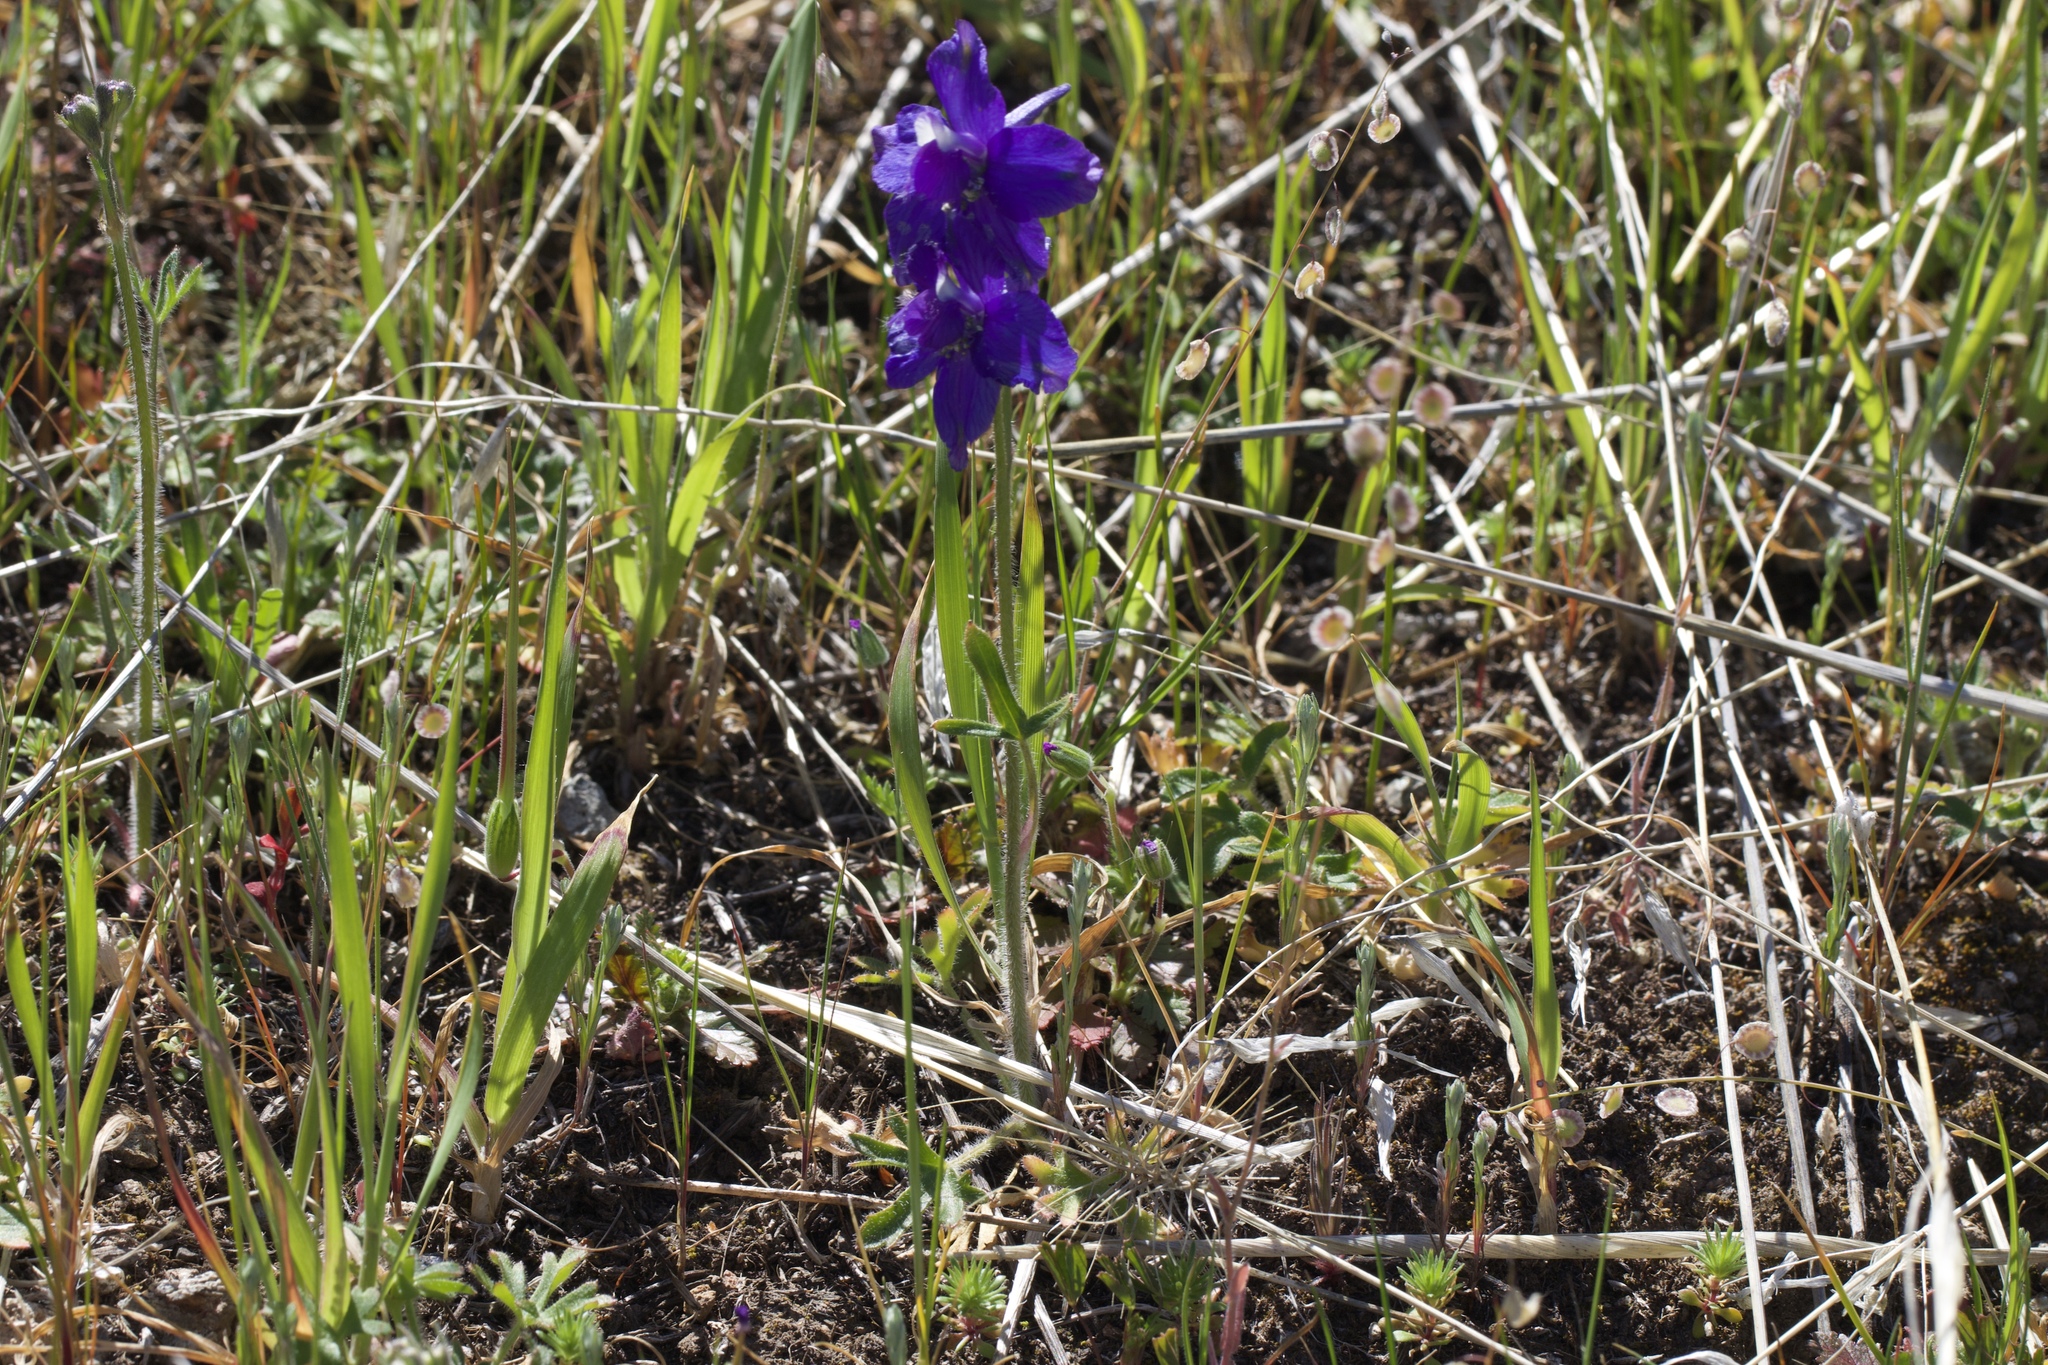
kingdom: Plantae
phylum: Tracheophyta
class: Magnoliopsida
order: Ranunculales
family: Ranunculaceae
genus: Delphinium
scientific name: Delphinium variegatum
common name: Royal larkspur
